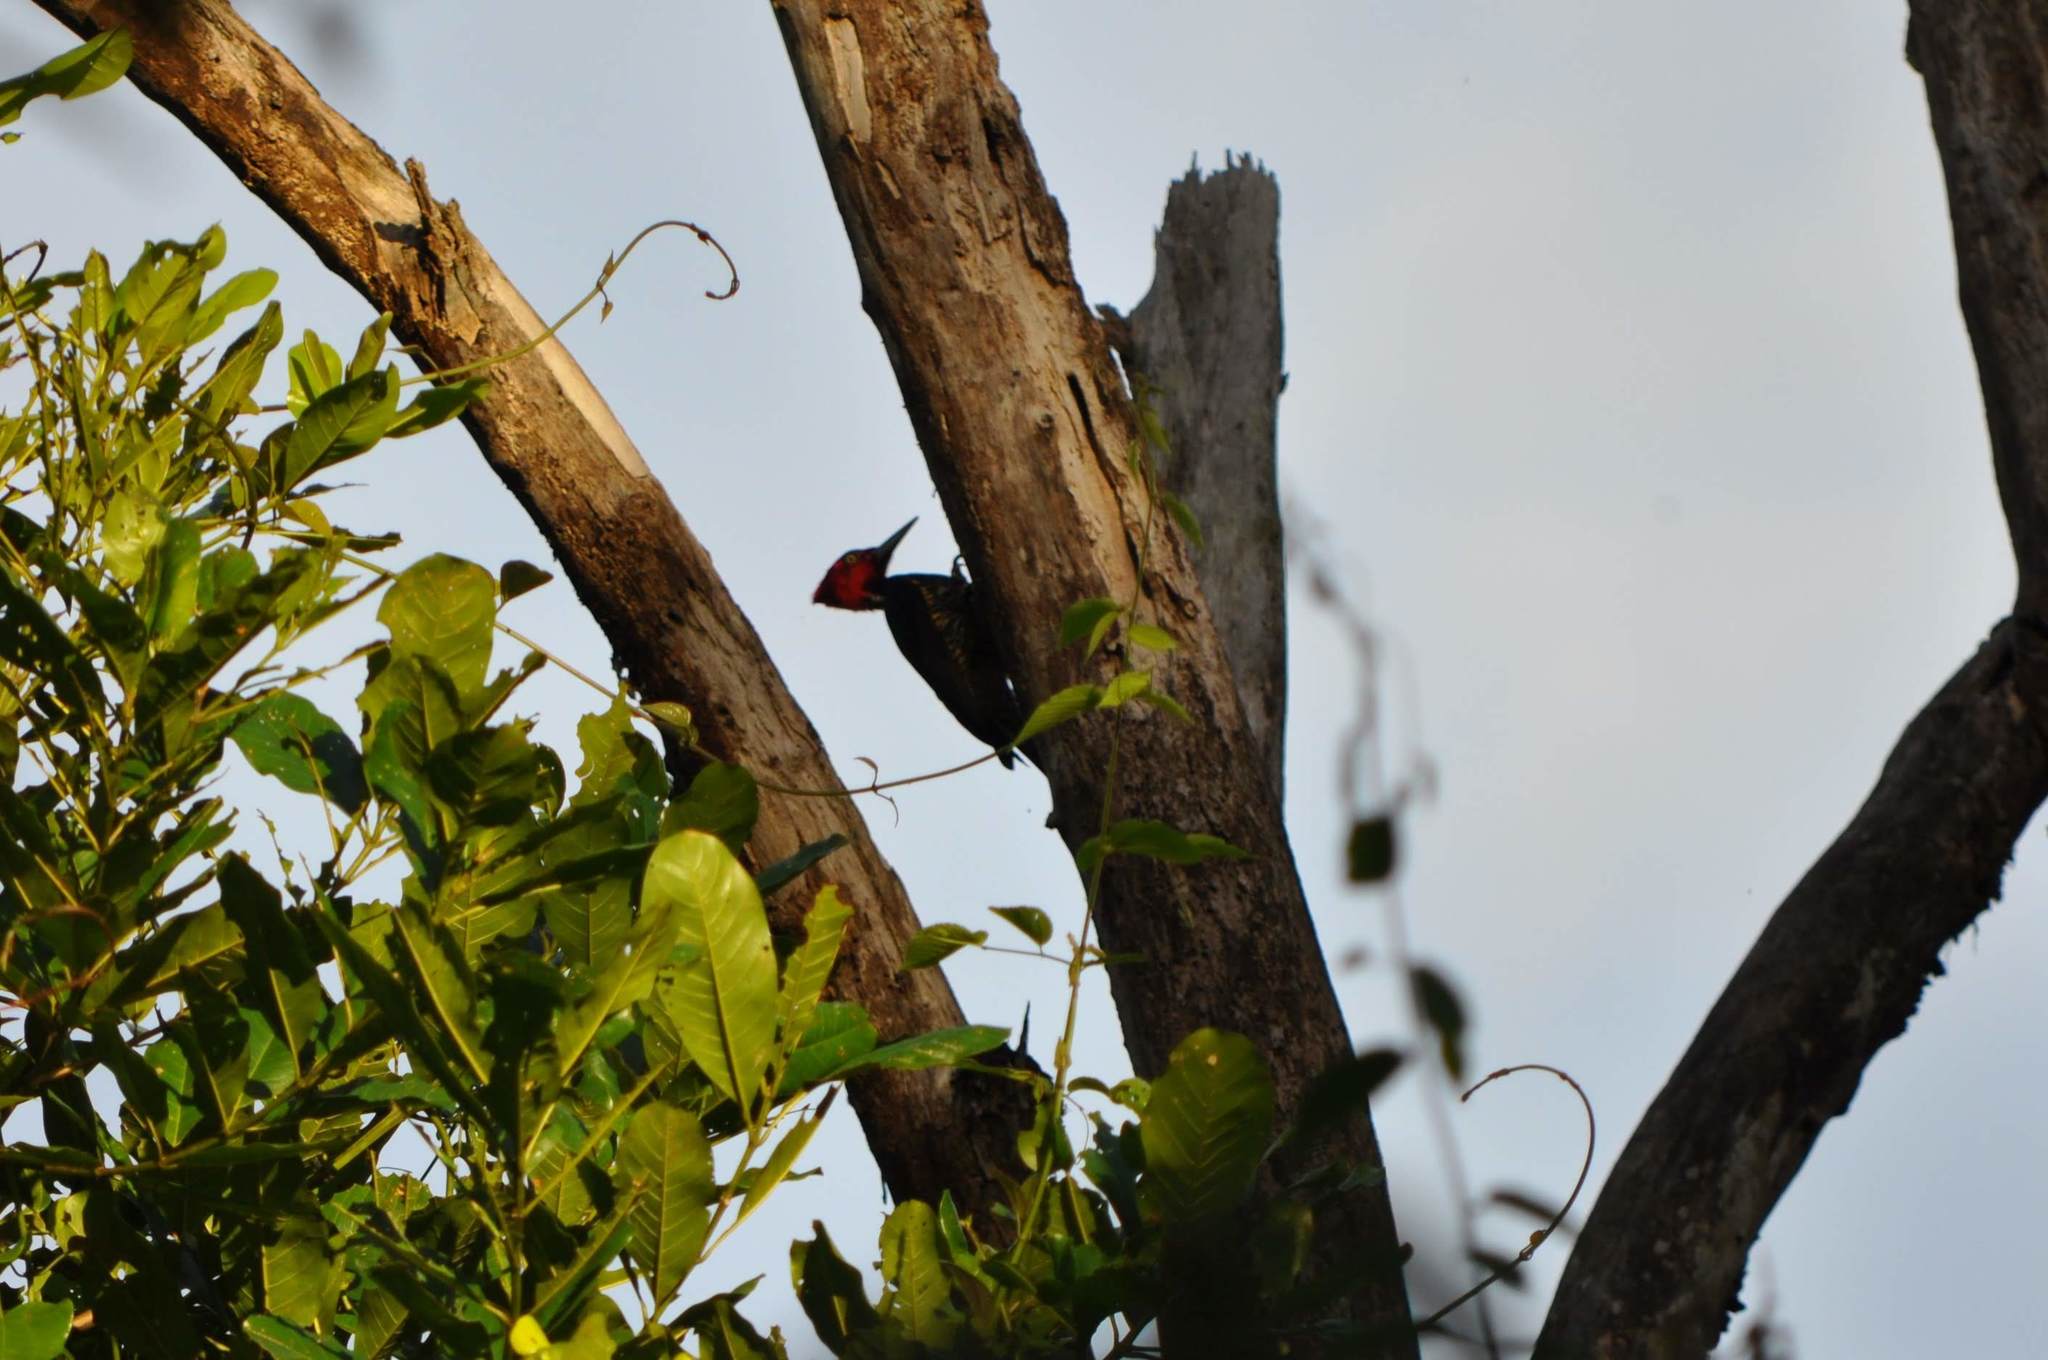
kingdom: Animalia
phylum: Chordata
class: Aves
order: Piciformes
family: Picidae
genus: Campephilus
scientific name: Campephilus guatemalensis
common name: Pale-billed woodpecker
